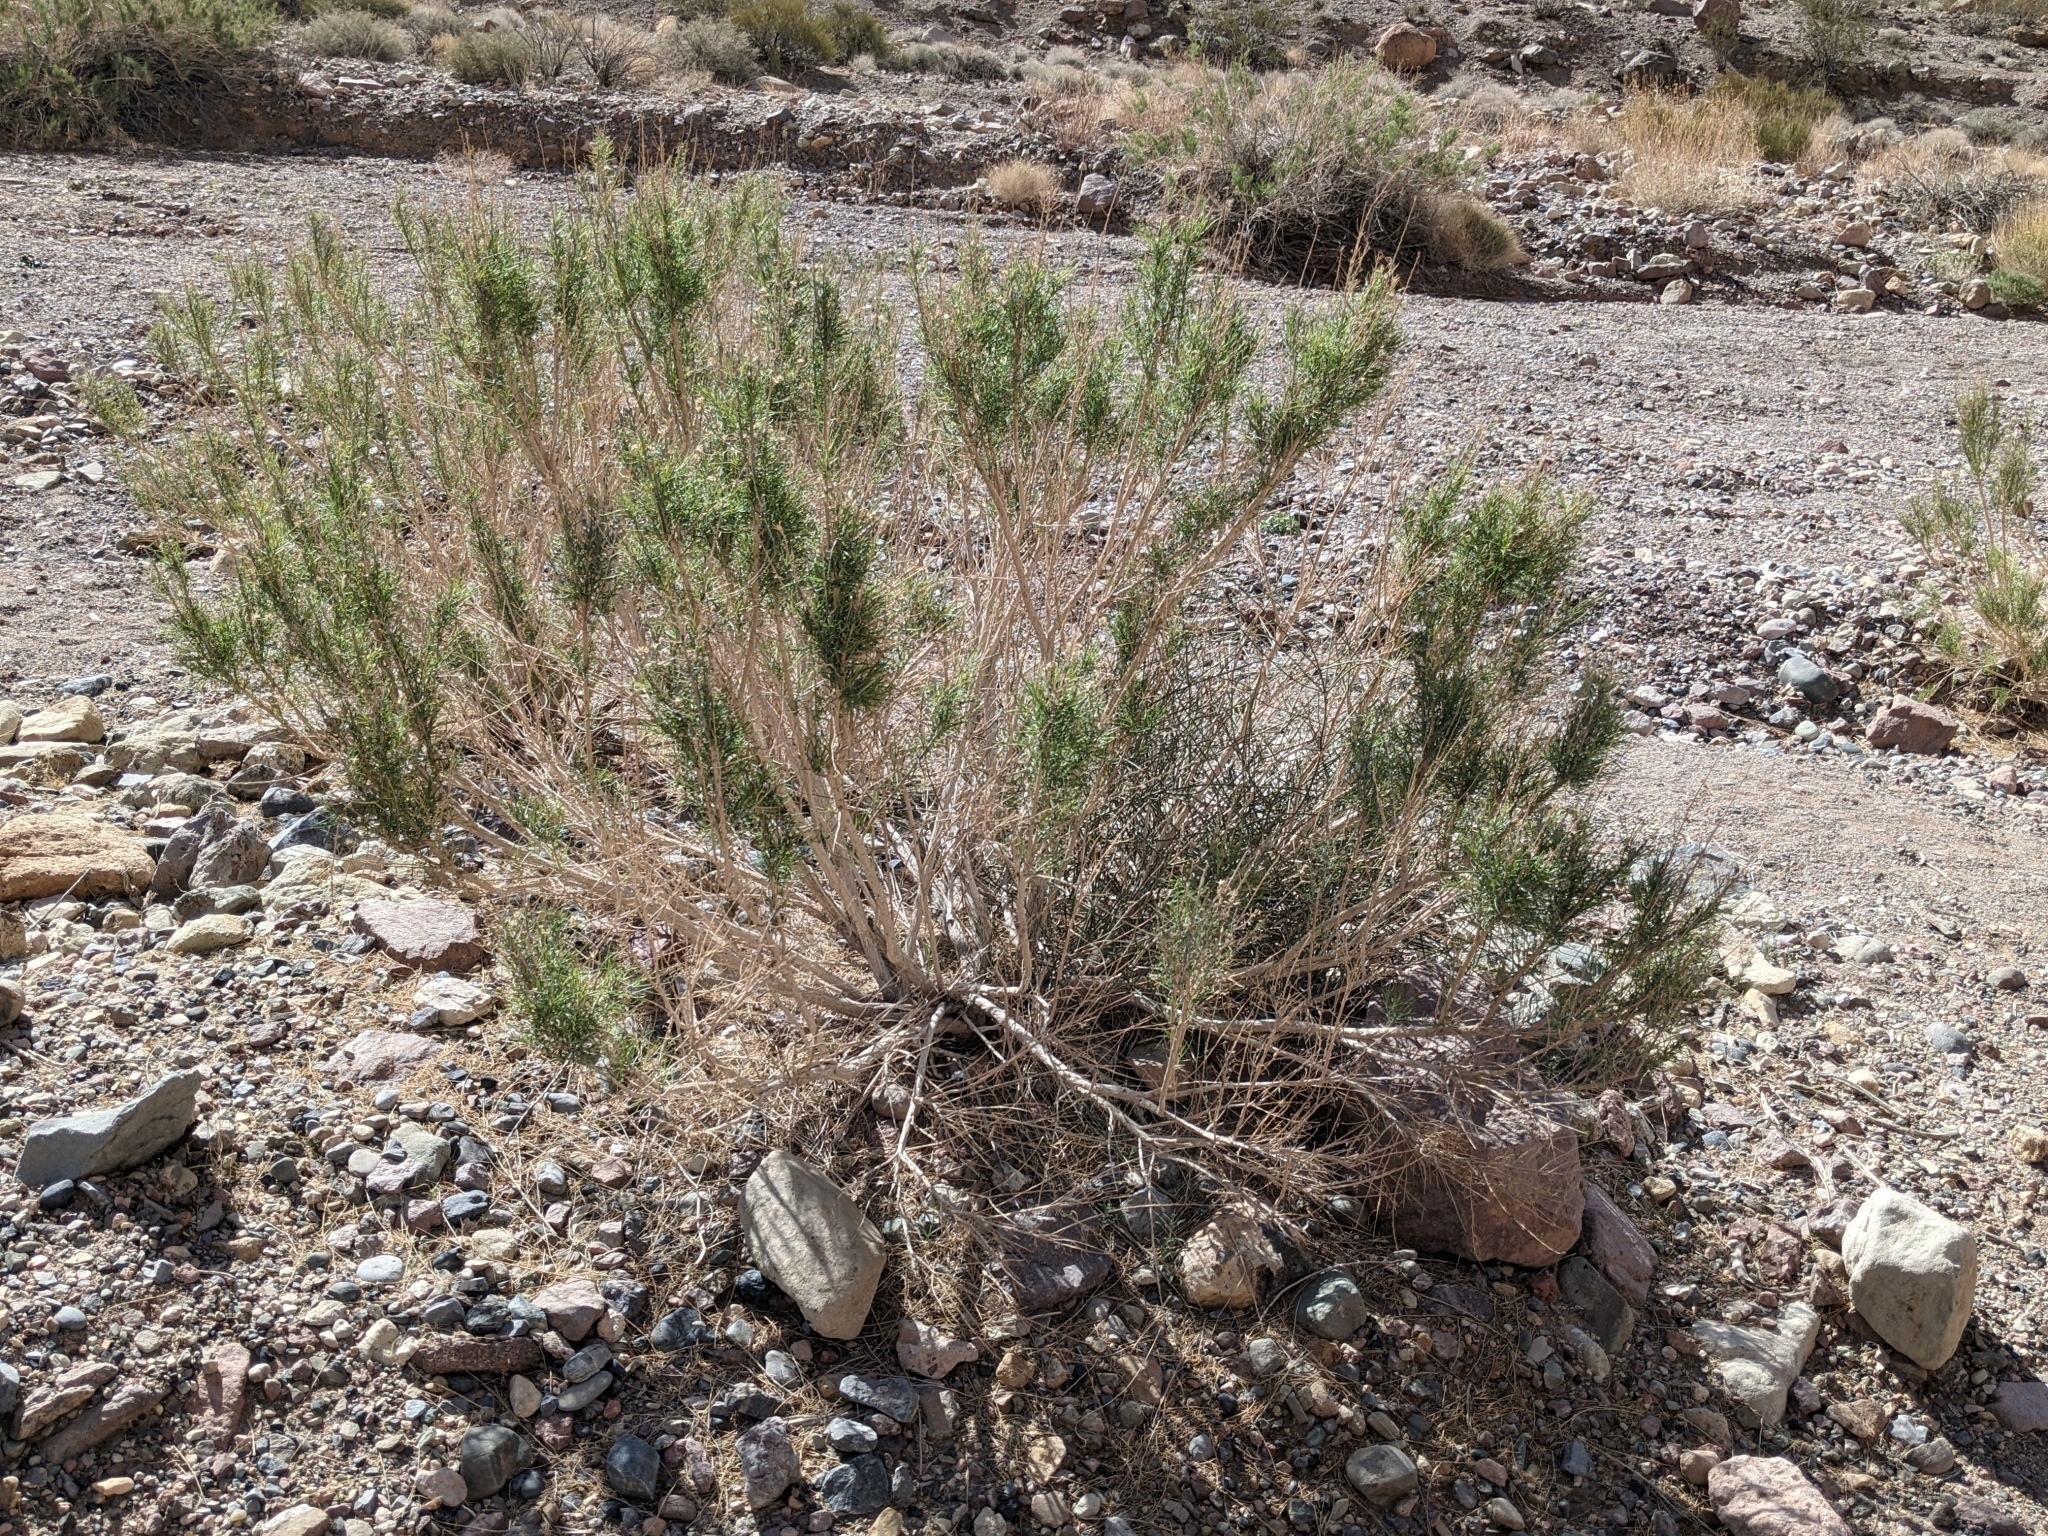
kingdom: Plantae
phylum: Tracheophyta
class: Magnoliopsida
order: Asterales
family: Asteraceae
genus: Ericameria
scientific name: Ericameria paniculata
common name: Punctate rabbitbrush
